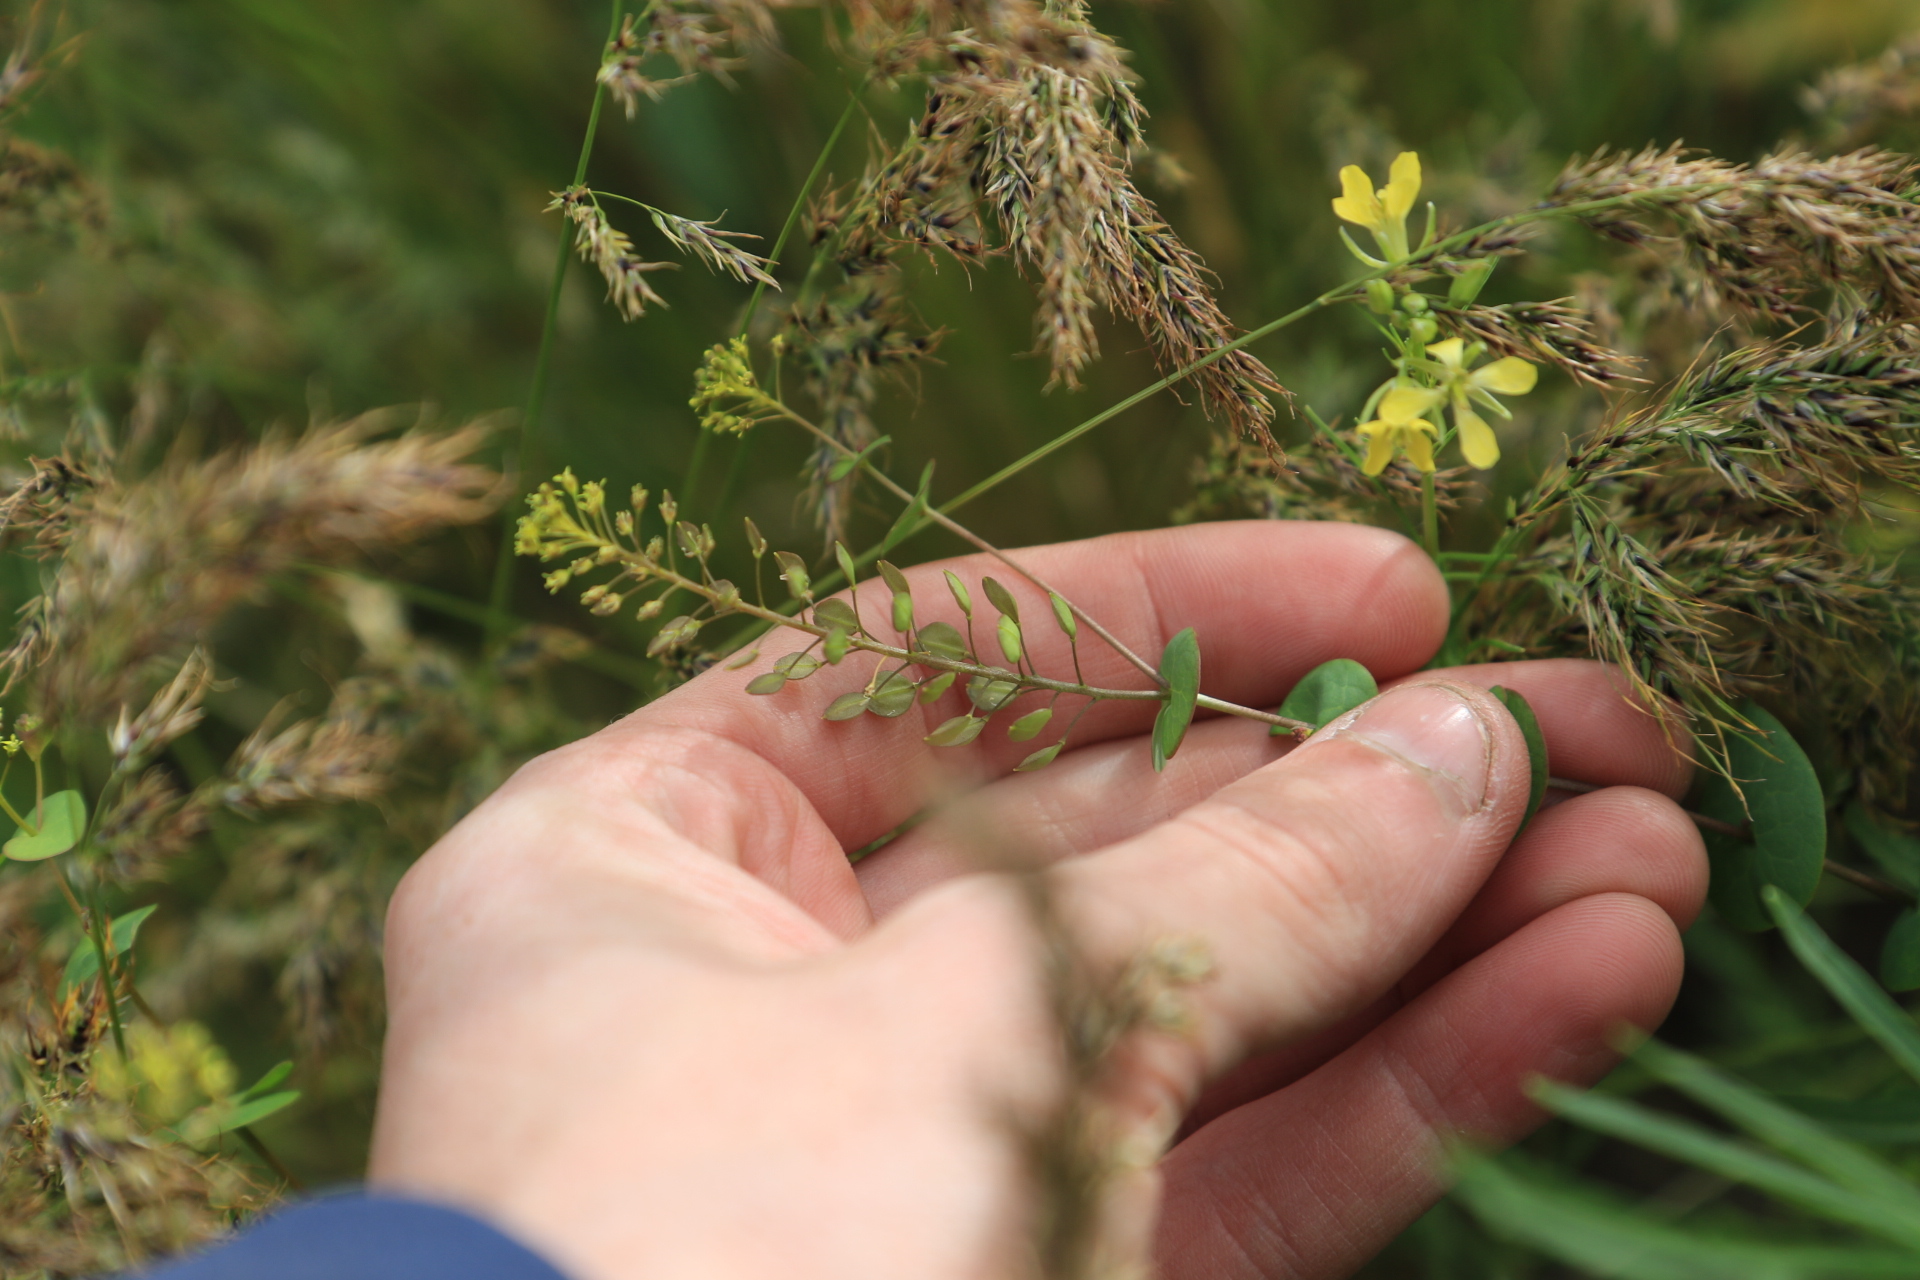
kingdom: Plantae
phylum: Tracheophyta
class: Magnoliopsida
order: Brassicales
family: Brassicaceae
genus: Lepidium
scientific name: Lepidium perfoliatum
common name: Perfoliate pepperwort
